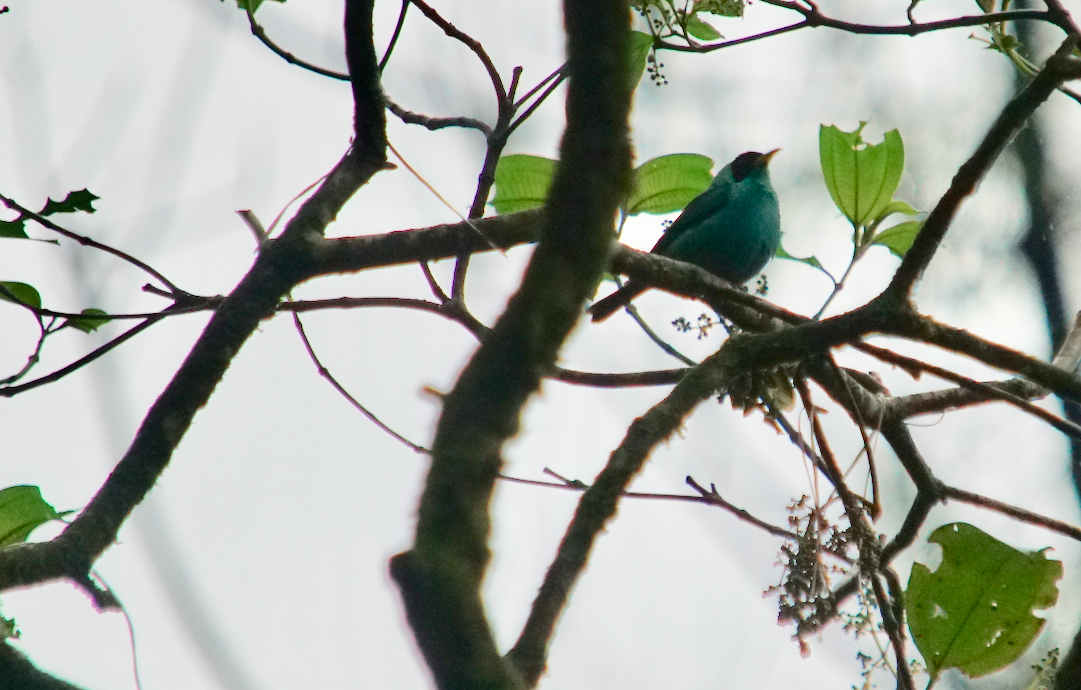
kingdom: Animalia
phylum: Chordata
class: Aves
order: Passeriformes
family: Thraupidae
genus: Chlorophanes
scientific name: Chlorophanes spiza
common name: Green honeycreeper
